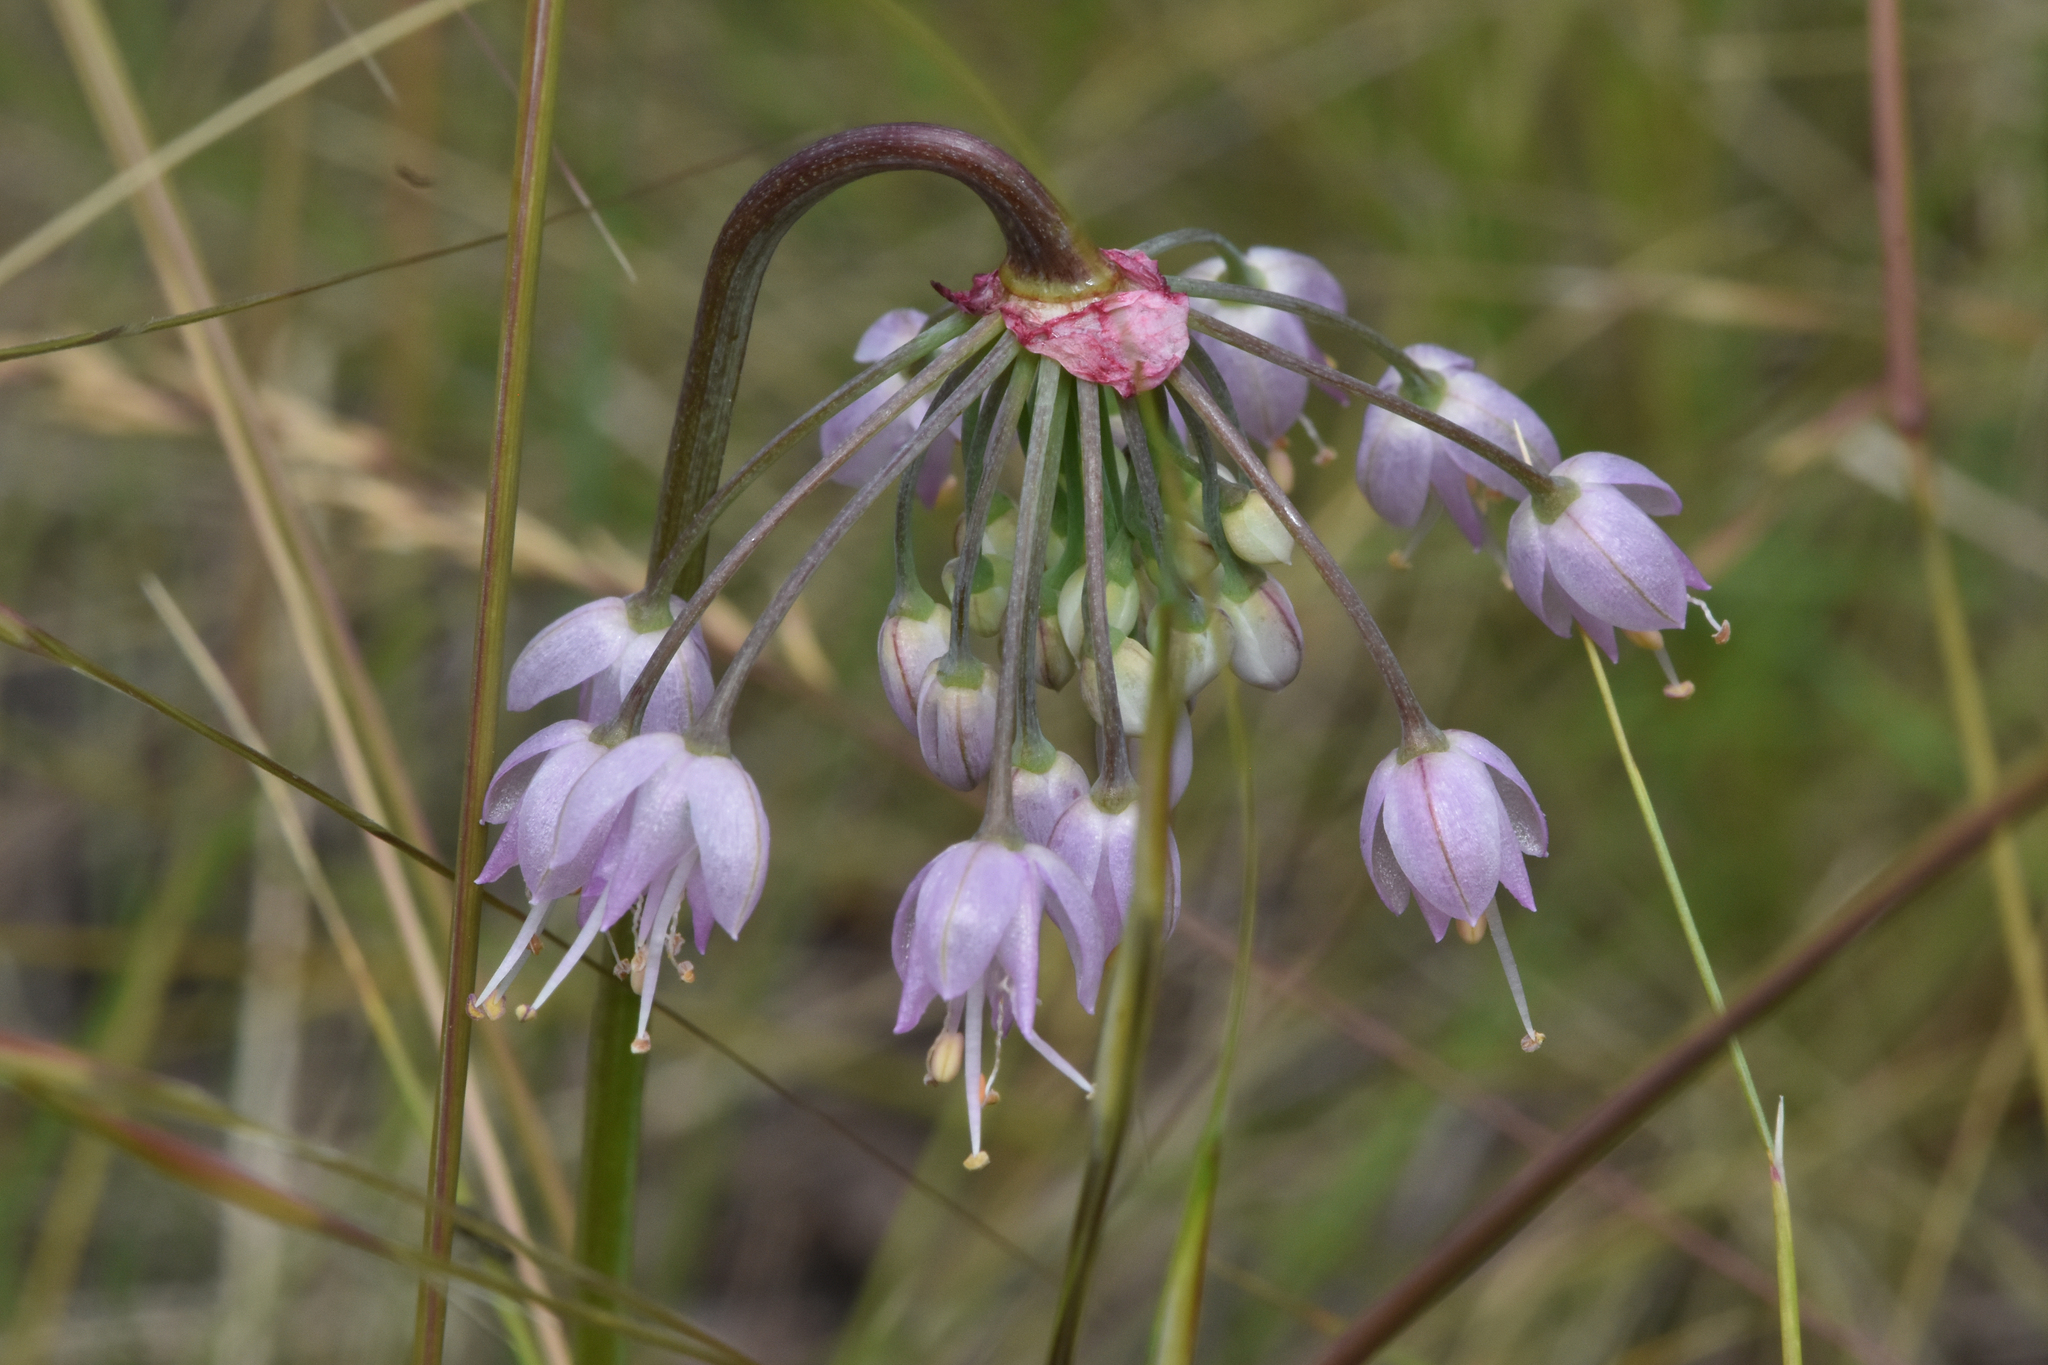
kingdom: Plantae
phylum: Tracheophyta
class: Liliopsida
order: Asparagales
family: Amaryllidaceae
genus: Allium
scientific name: Allium cernuum
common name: Nodding onion
